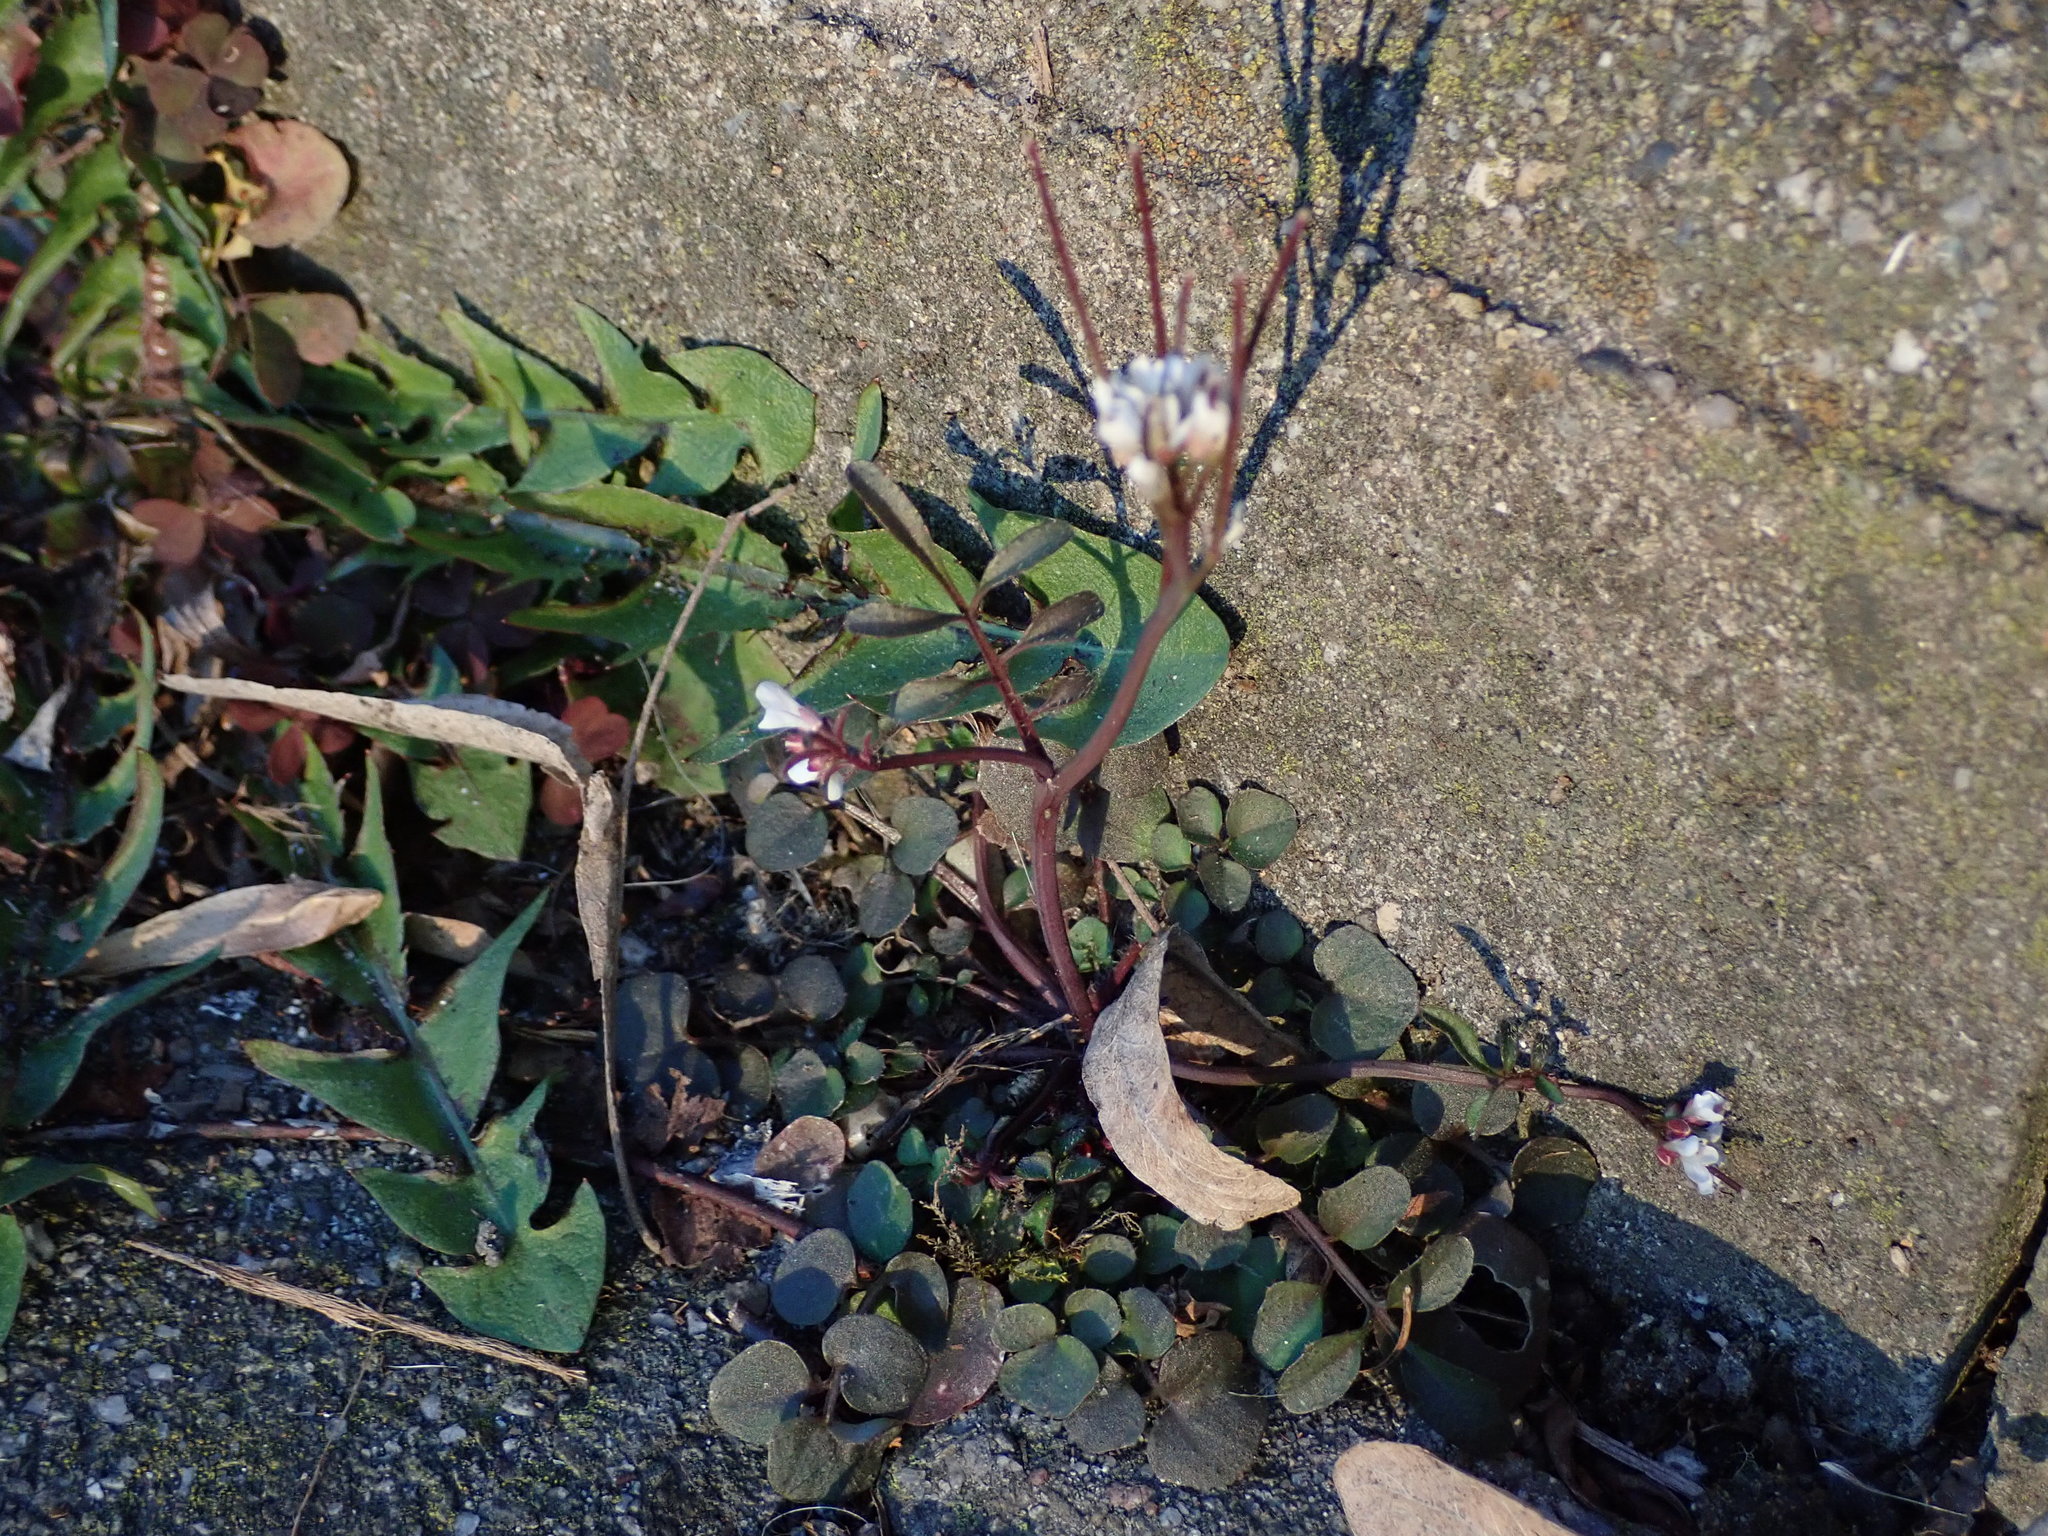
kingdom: Plantae
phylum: Tracheophyta
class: Magnoliopsida
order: Brassicales
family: Brassicaceae
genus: Cardamine
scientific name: Cardamine hirsuta
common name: Hairy bittercress
